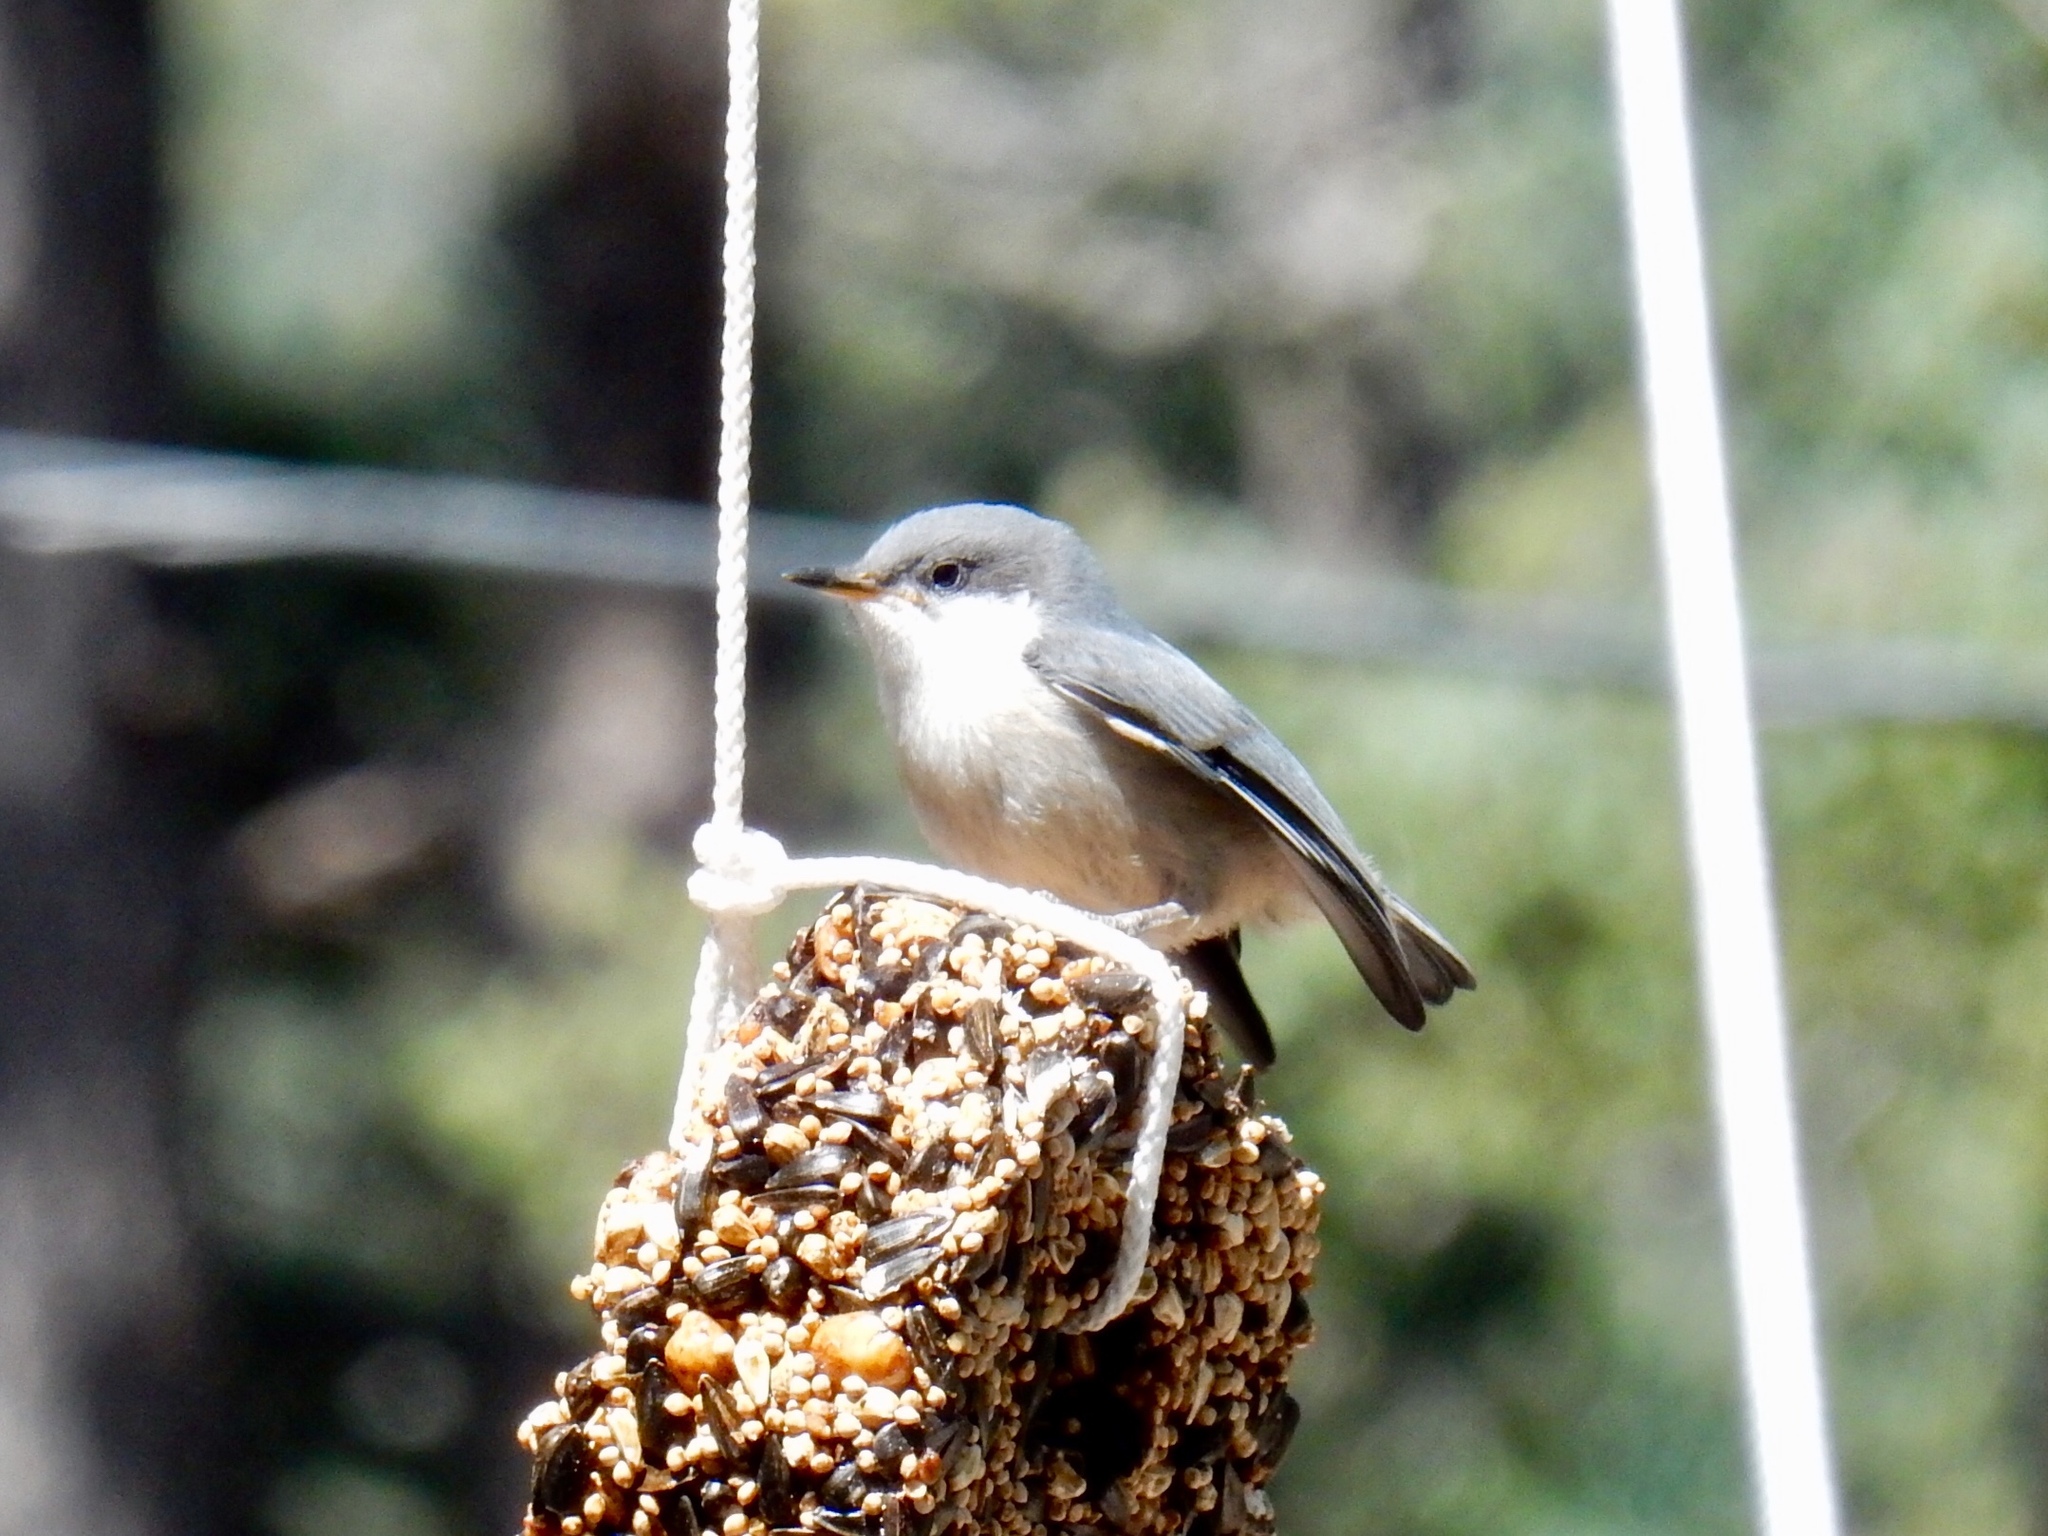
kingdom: Animalia
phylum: Chordata
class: Aves
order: Passeriformes
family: Sittidae
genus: Sitta
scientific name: Sitta pygmaea
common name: Pygmy nuthatch
